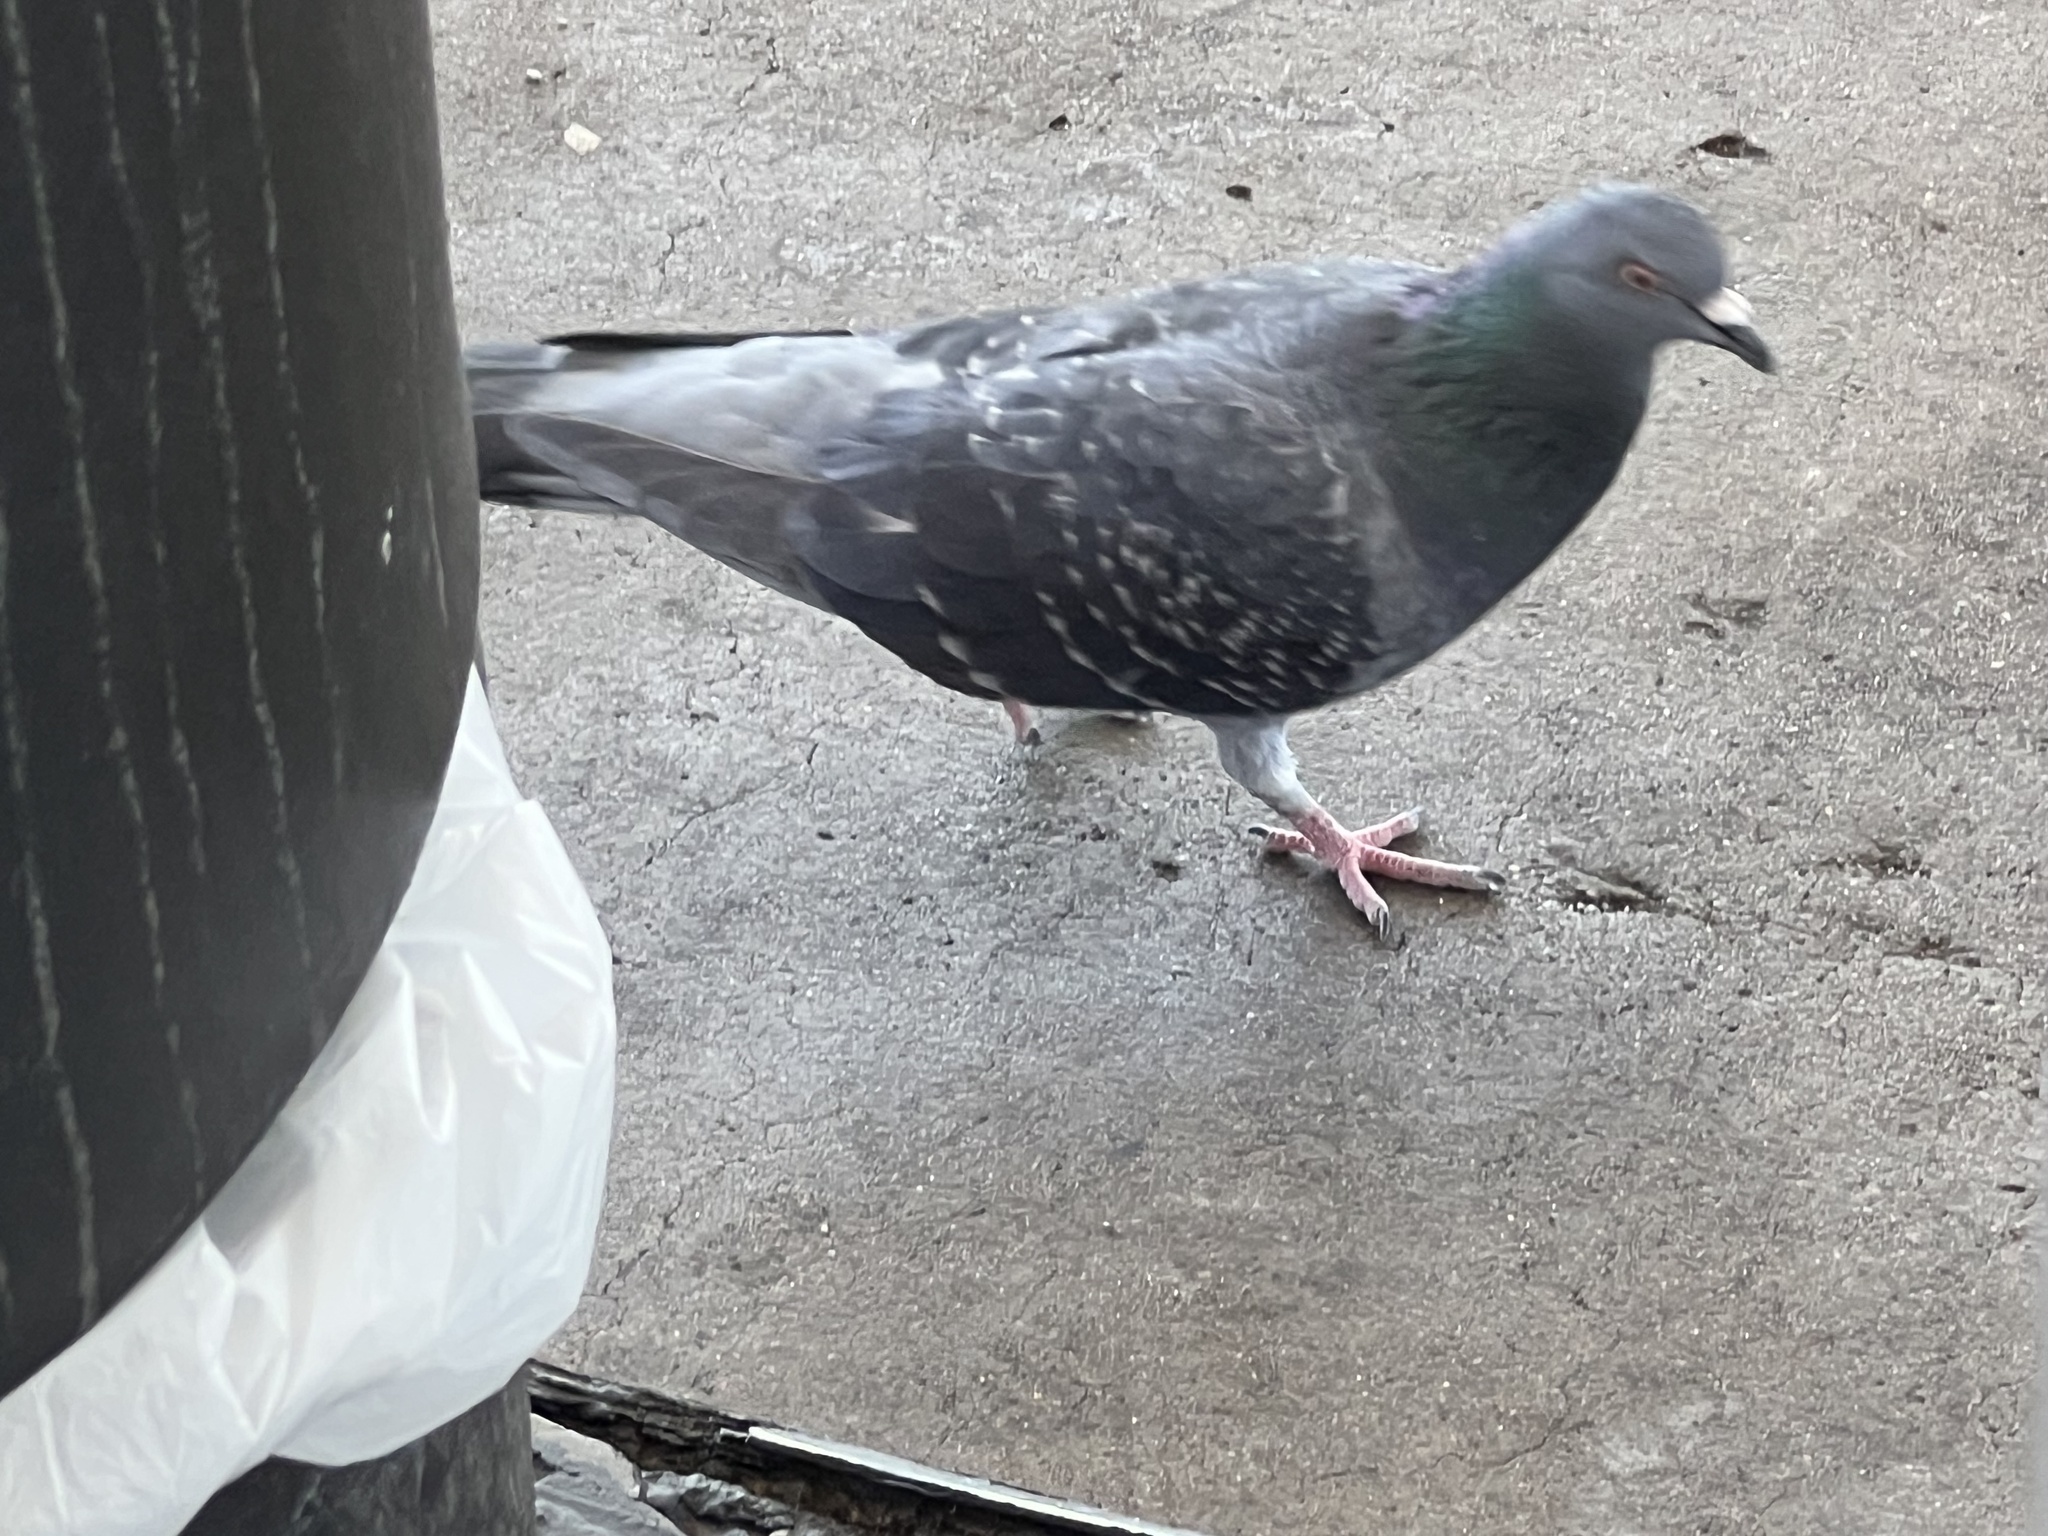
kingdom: Animalia
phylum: Chordata
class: Aves
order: Columbiformes
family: Columbidae
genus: Columba
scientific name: Columba livia
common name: Rock pigeon
